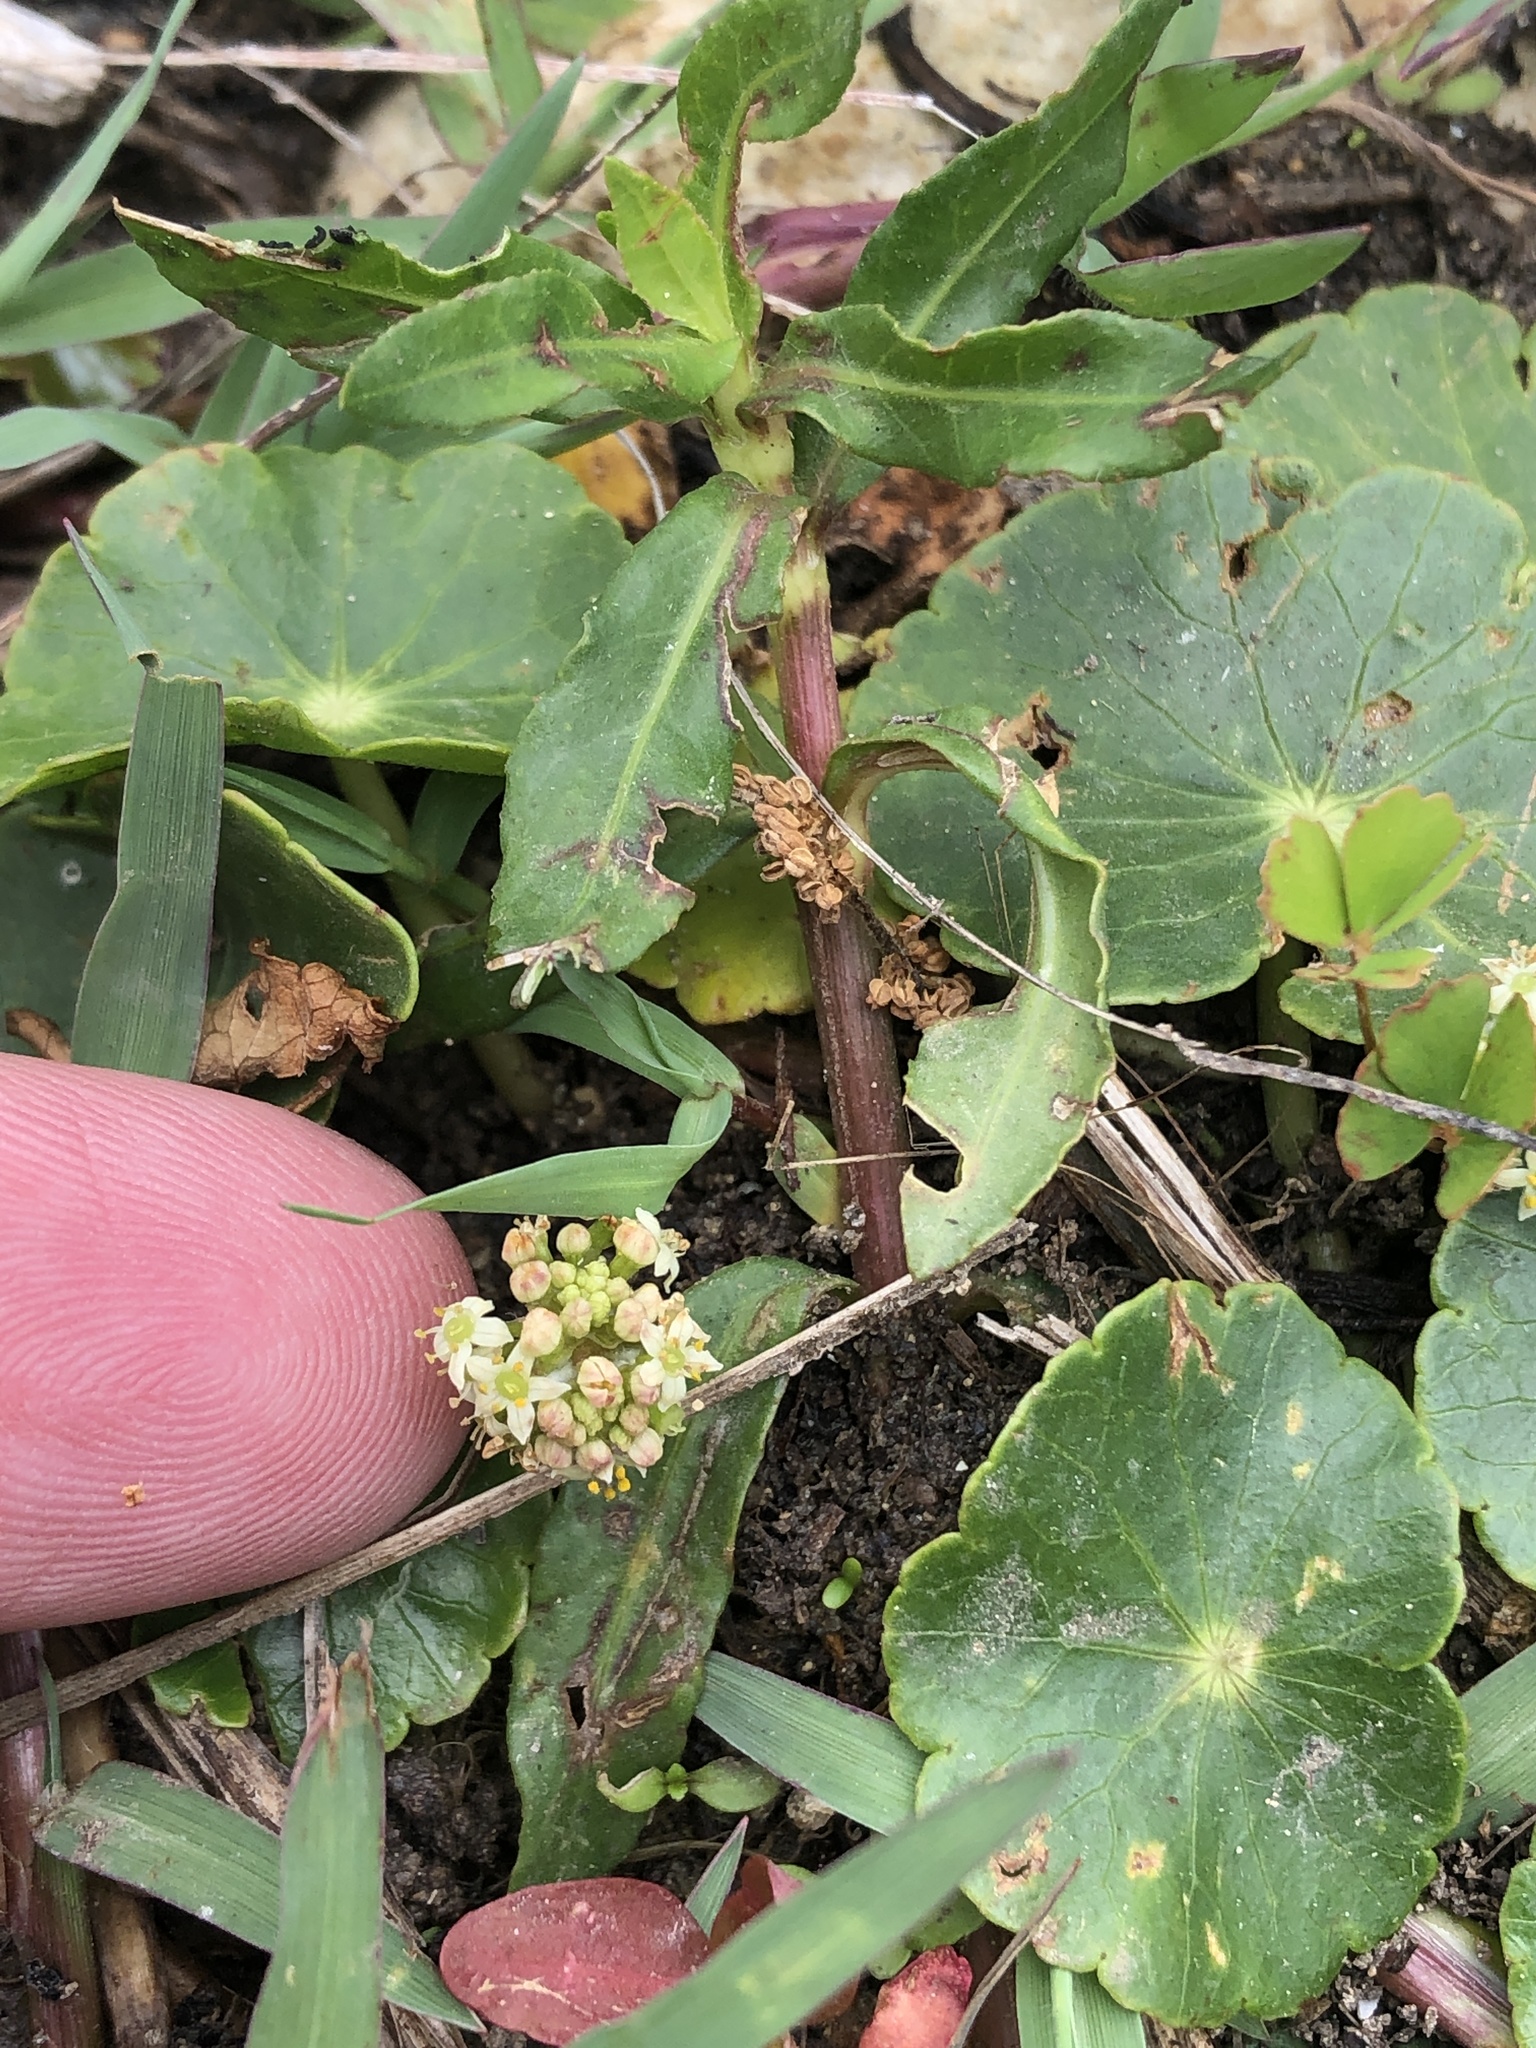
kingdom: Plantae
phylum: Tracheophyta
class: Magnoliopsida
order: Apiales
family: Araliaceae
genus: Hydrocotyle
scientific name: Hydrocotyle umbellata
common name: Water pennywort
